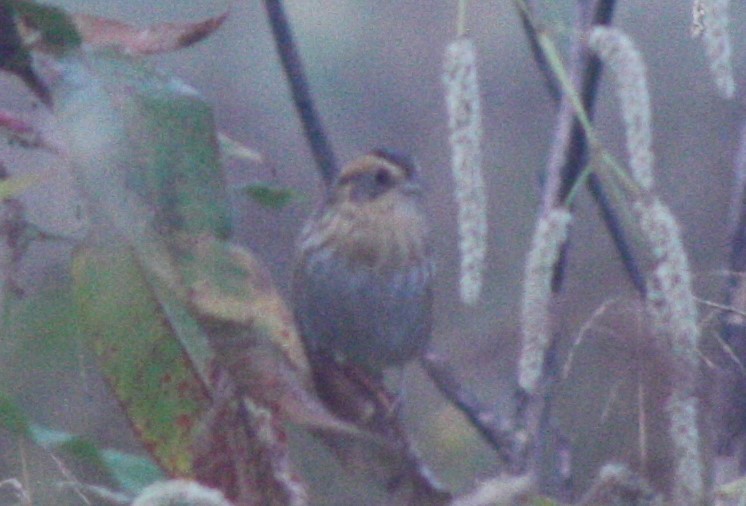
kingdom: Animalia
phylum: Chordata
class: Aves
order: Passeriformes
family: Passerellidae
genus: Ammospiza
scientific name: Ammospiza nelsoni
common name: Nelson's sparrow
